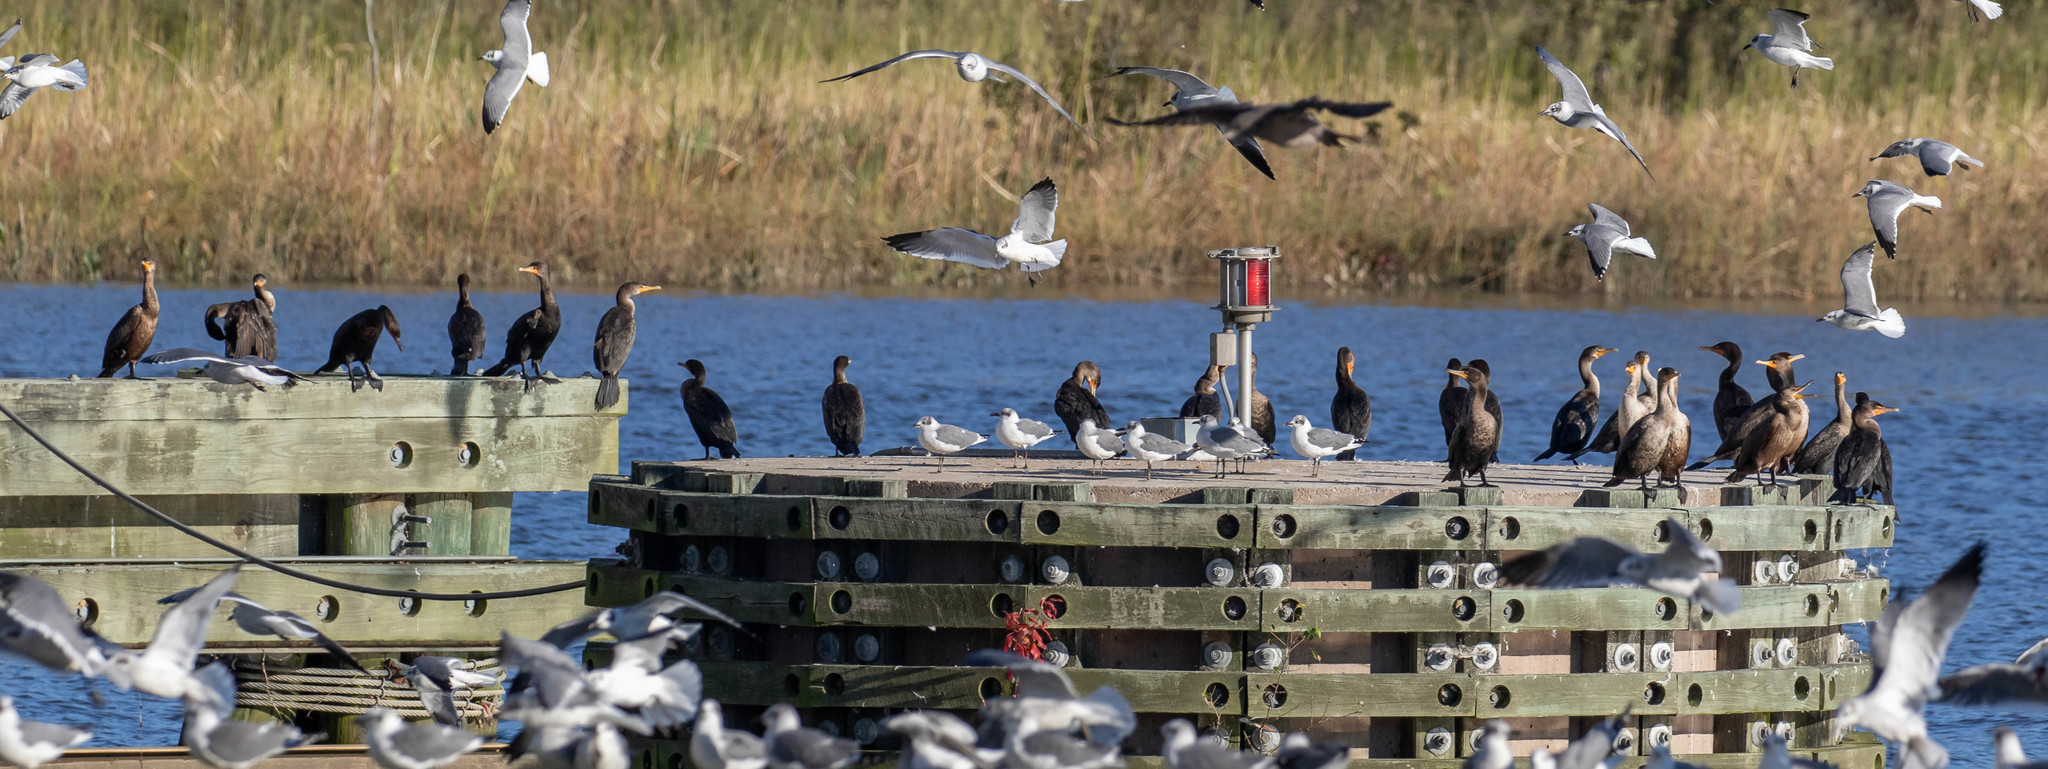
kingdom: Animalia
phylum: Chordata
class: Aves
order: Suliformes
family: Phalacrocoracidae
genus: Phalacrocorax
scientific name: Phalacrocorax auritus
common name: Double-crested cormorant
